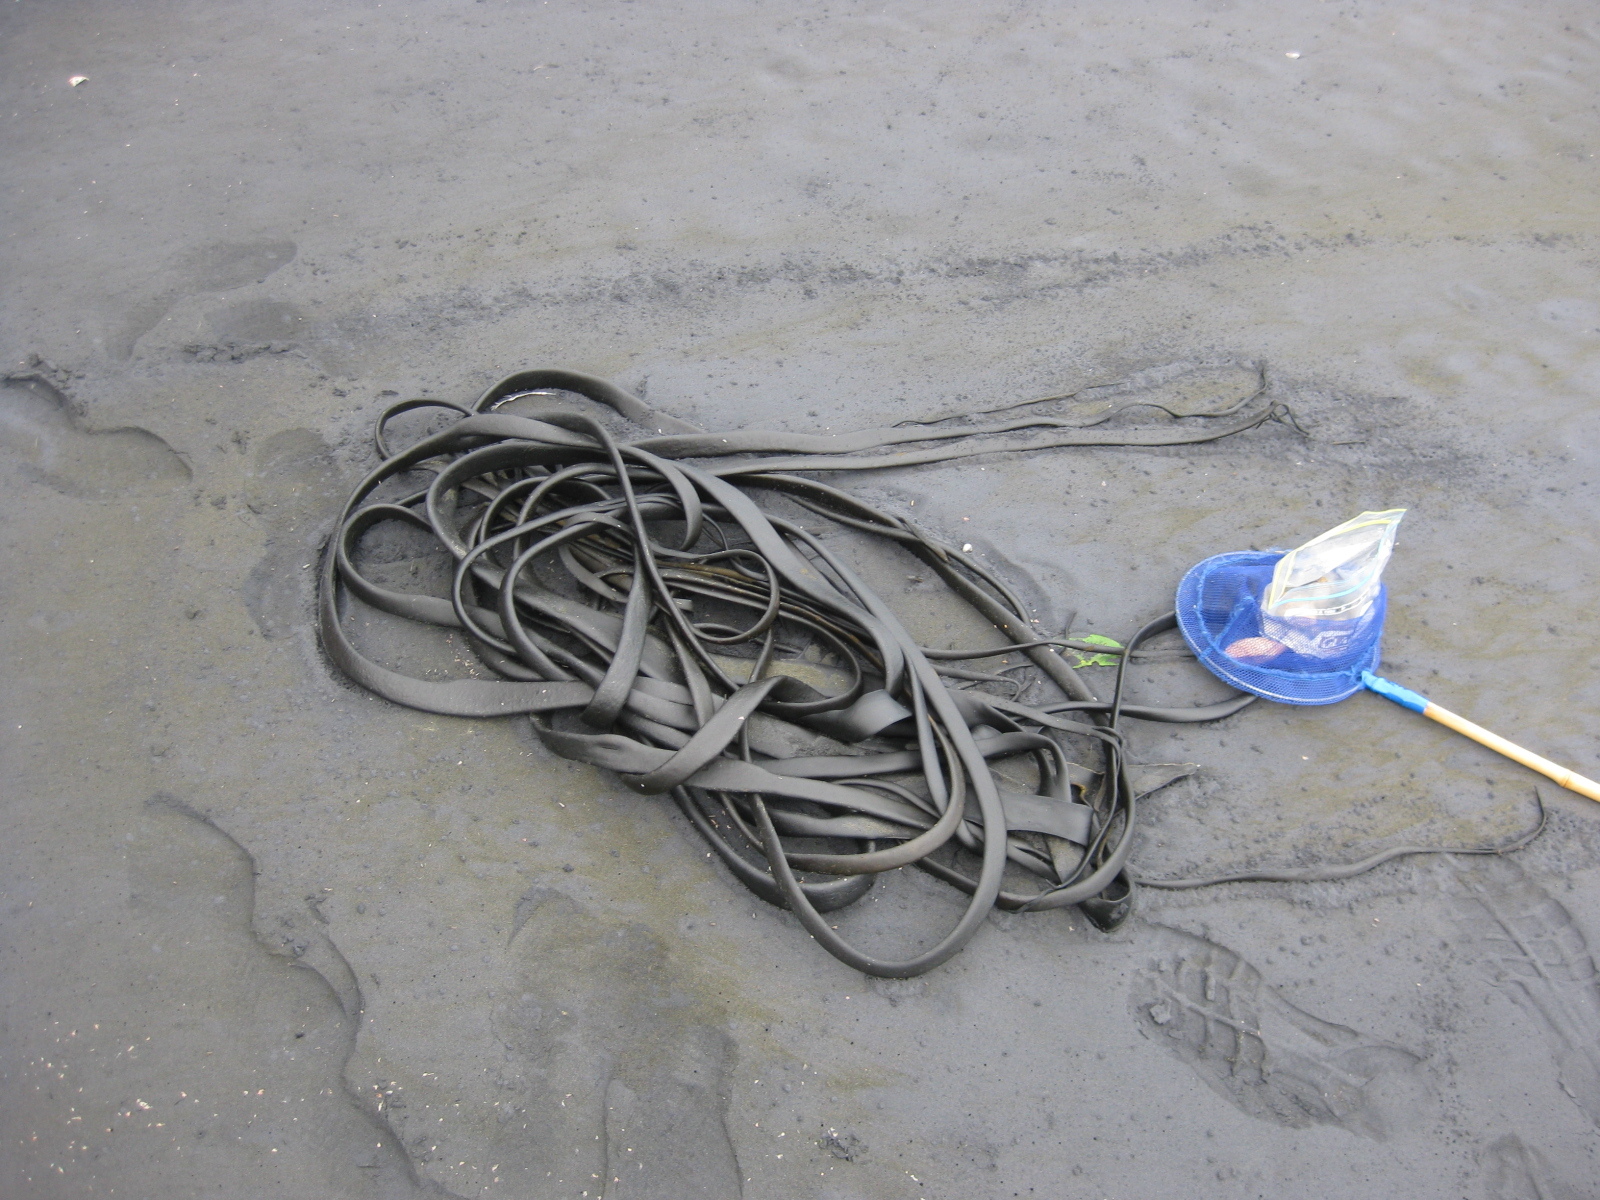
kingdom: Chromista
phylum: Ochrophyta
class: Phaeophyceae
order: Fucales
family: Durvillaeaceae
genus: Durvillaea
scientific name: Durvillaea antarctica
